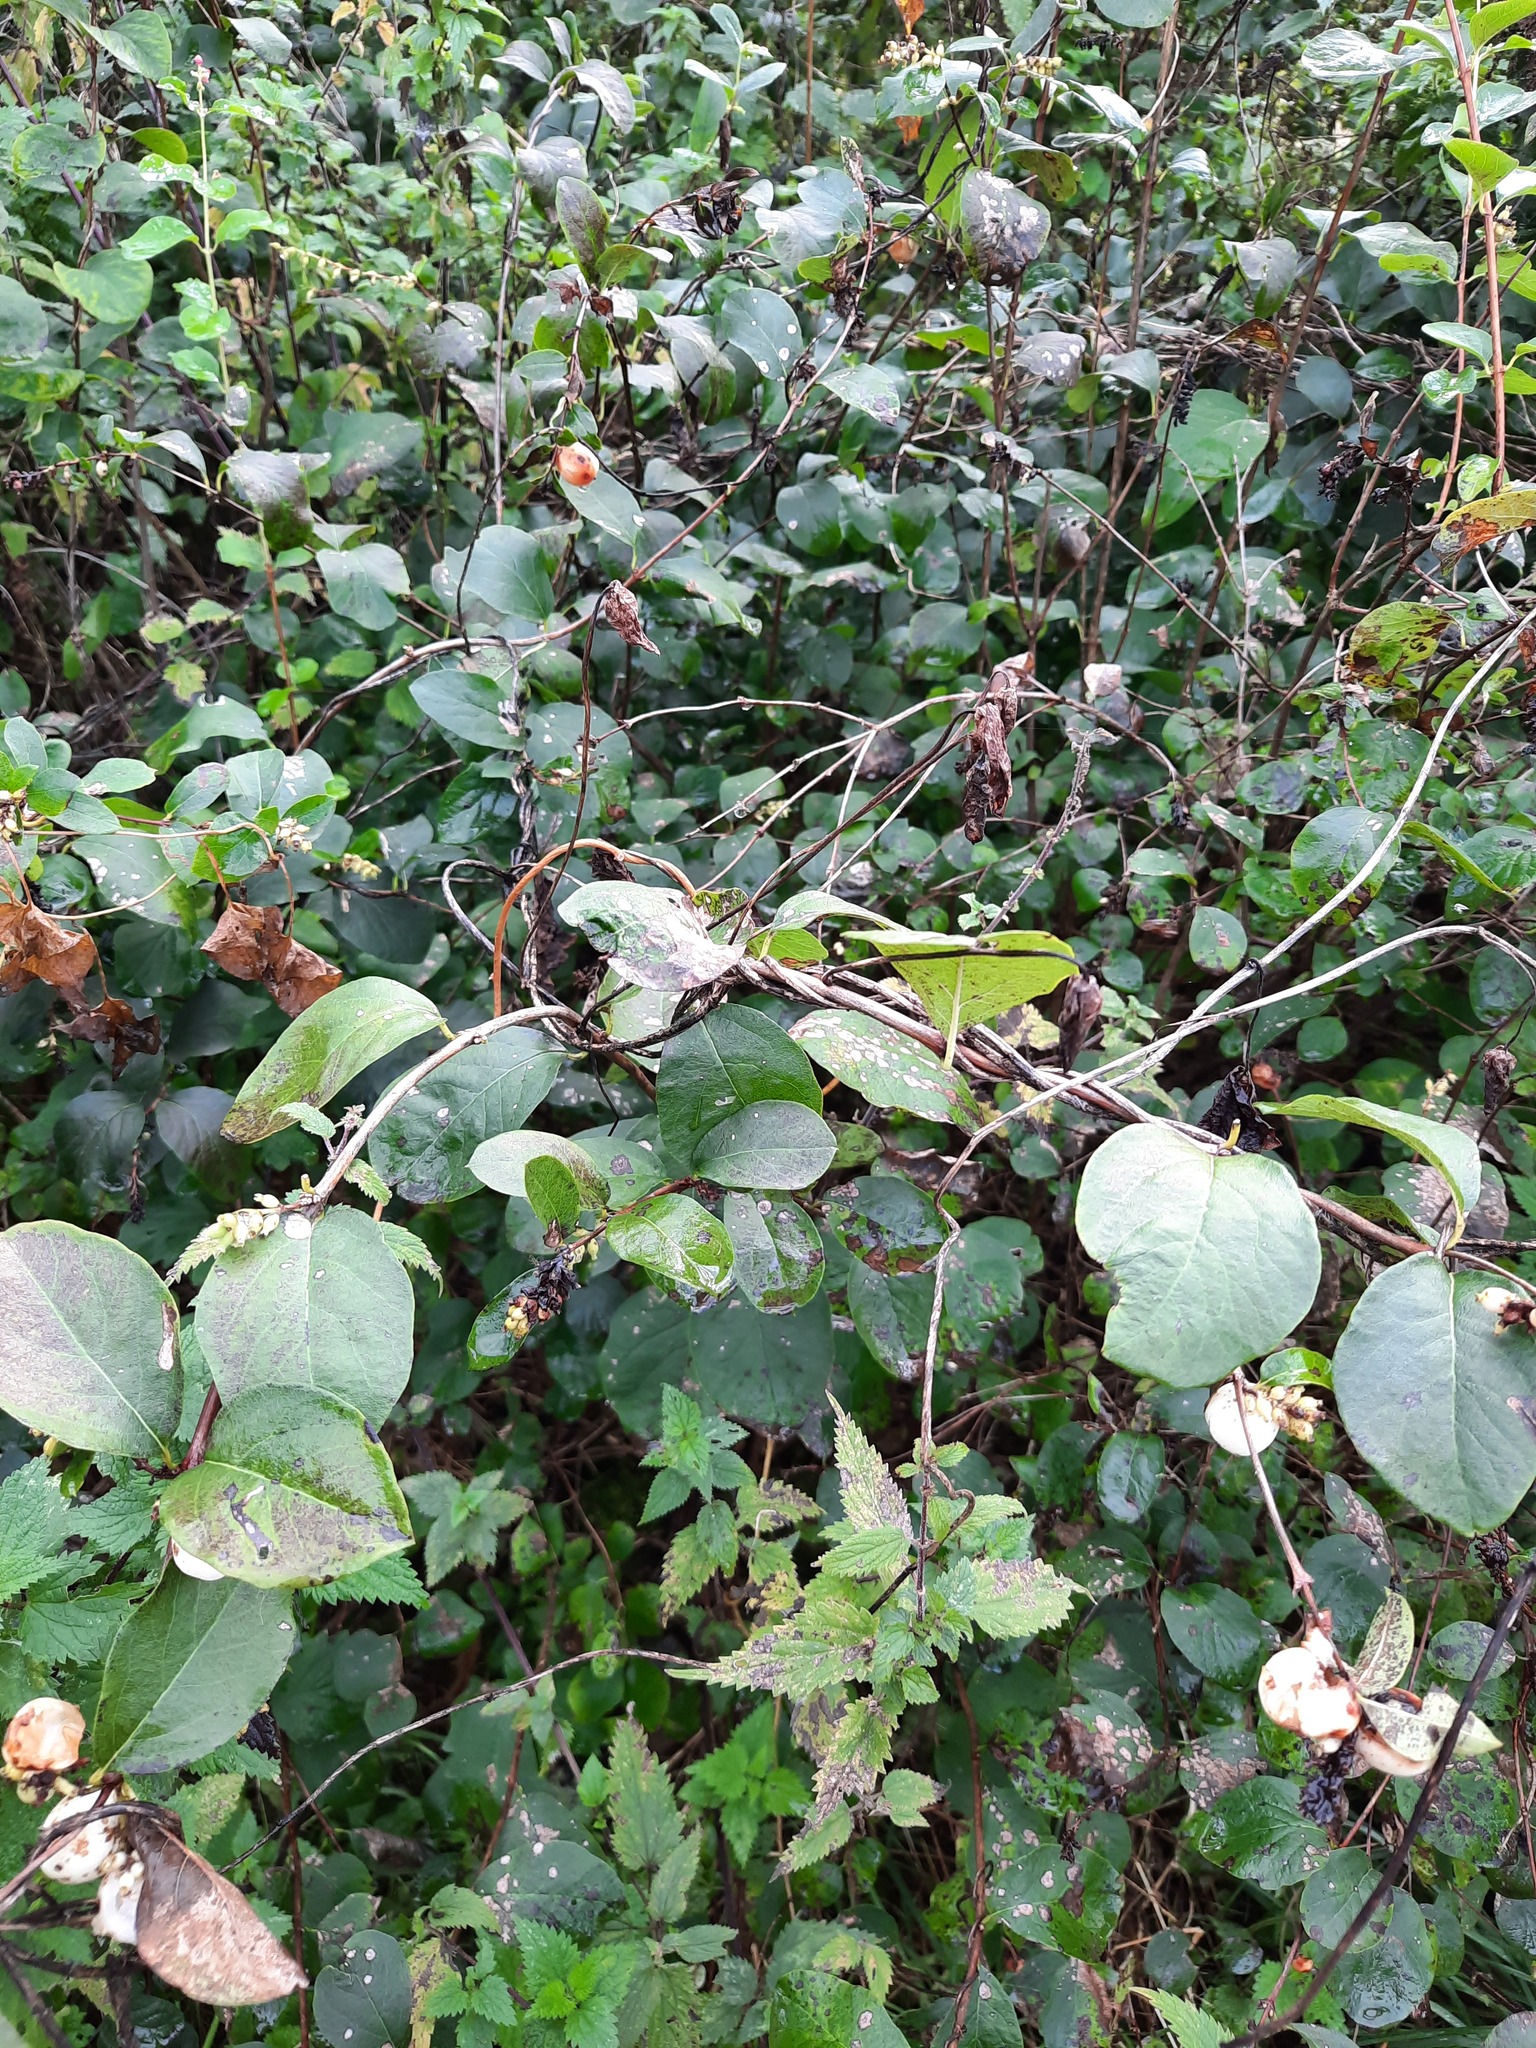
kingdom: Plantae
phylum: Tracheophyta
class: Magnoliopsida
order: Dipsacales
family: Caprifoliaceae
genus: Symphoricarpos
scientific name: Symphoricarpos albus
